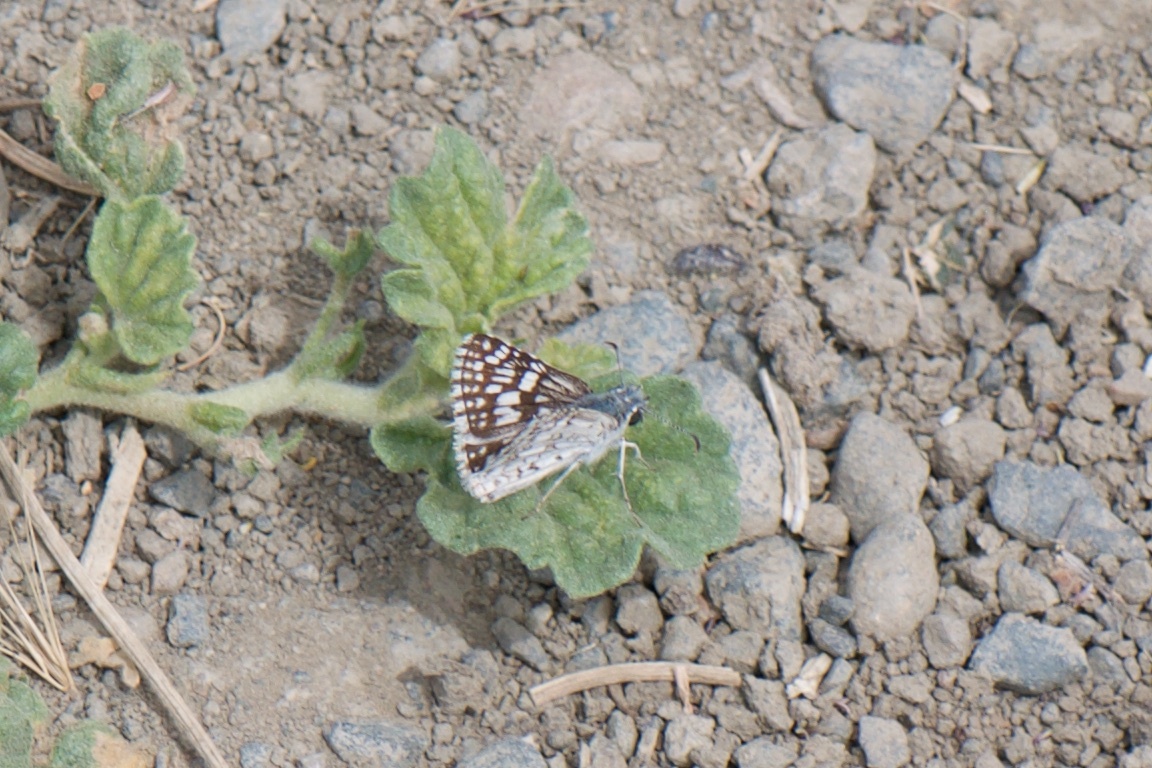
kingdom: Animalia
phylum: Arthropoda
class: Insecta
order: Lepidoptera
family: Hesperiidae
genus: Burnsius
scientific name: Burnsius communis
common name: Common checkered-skipper
